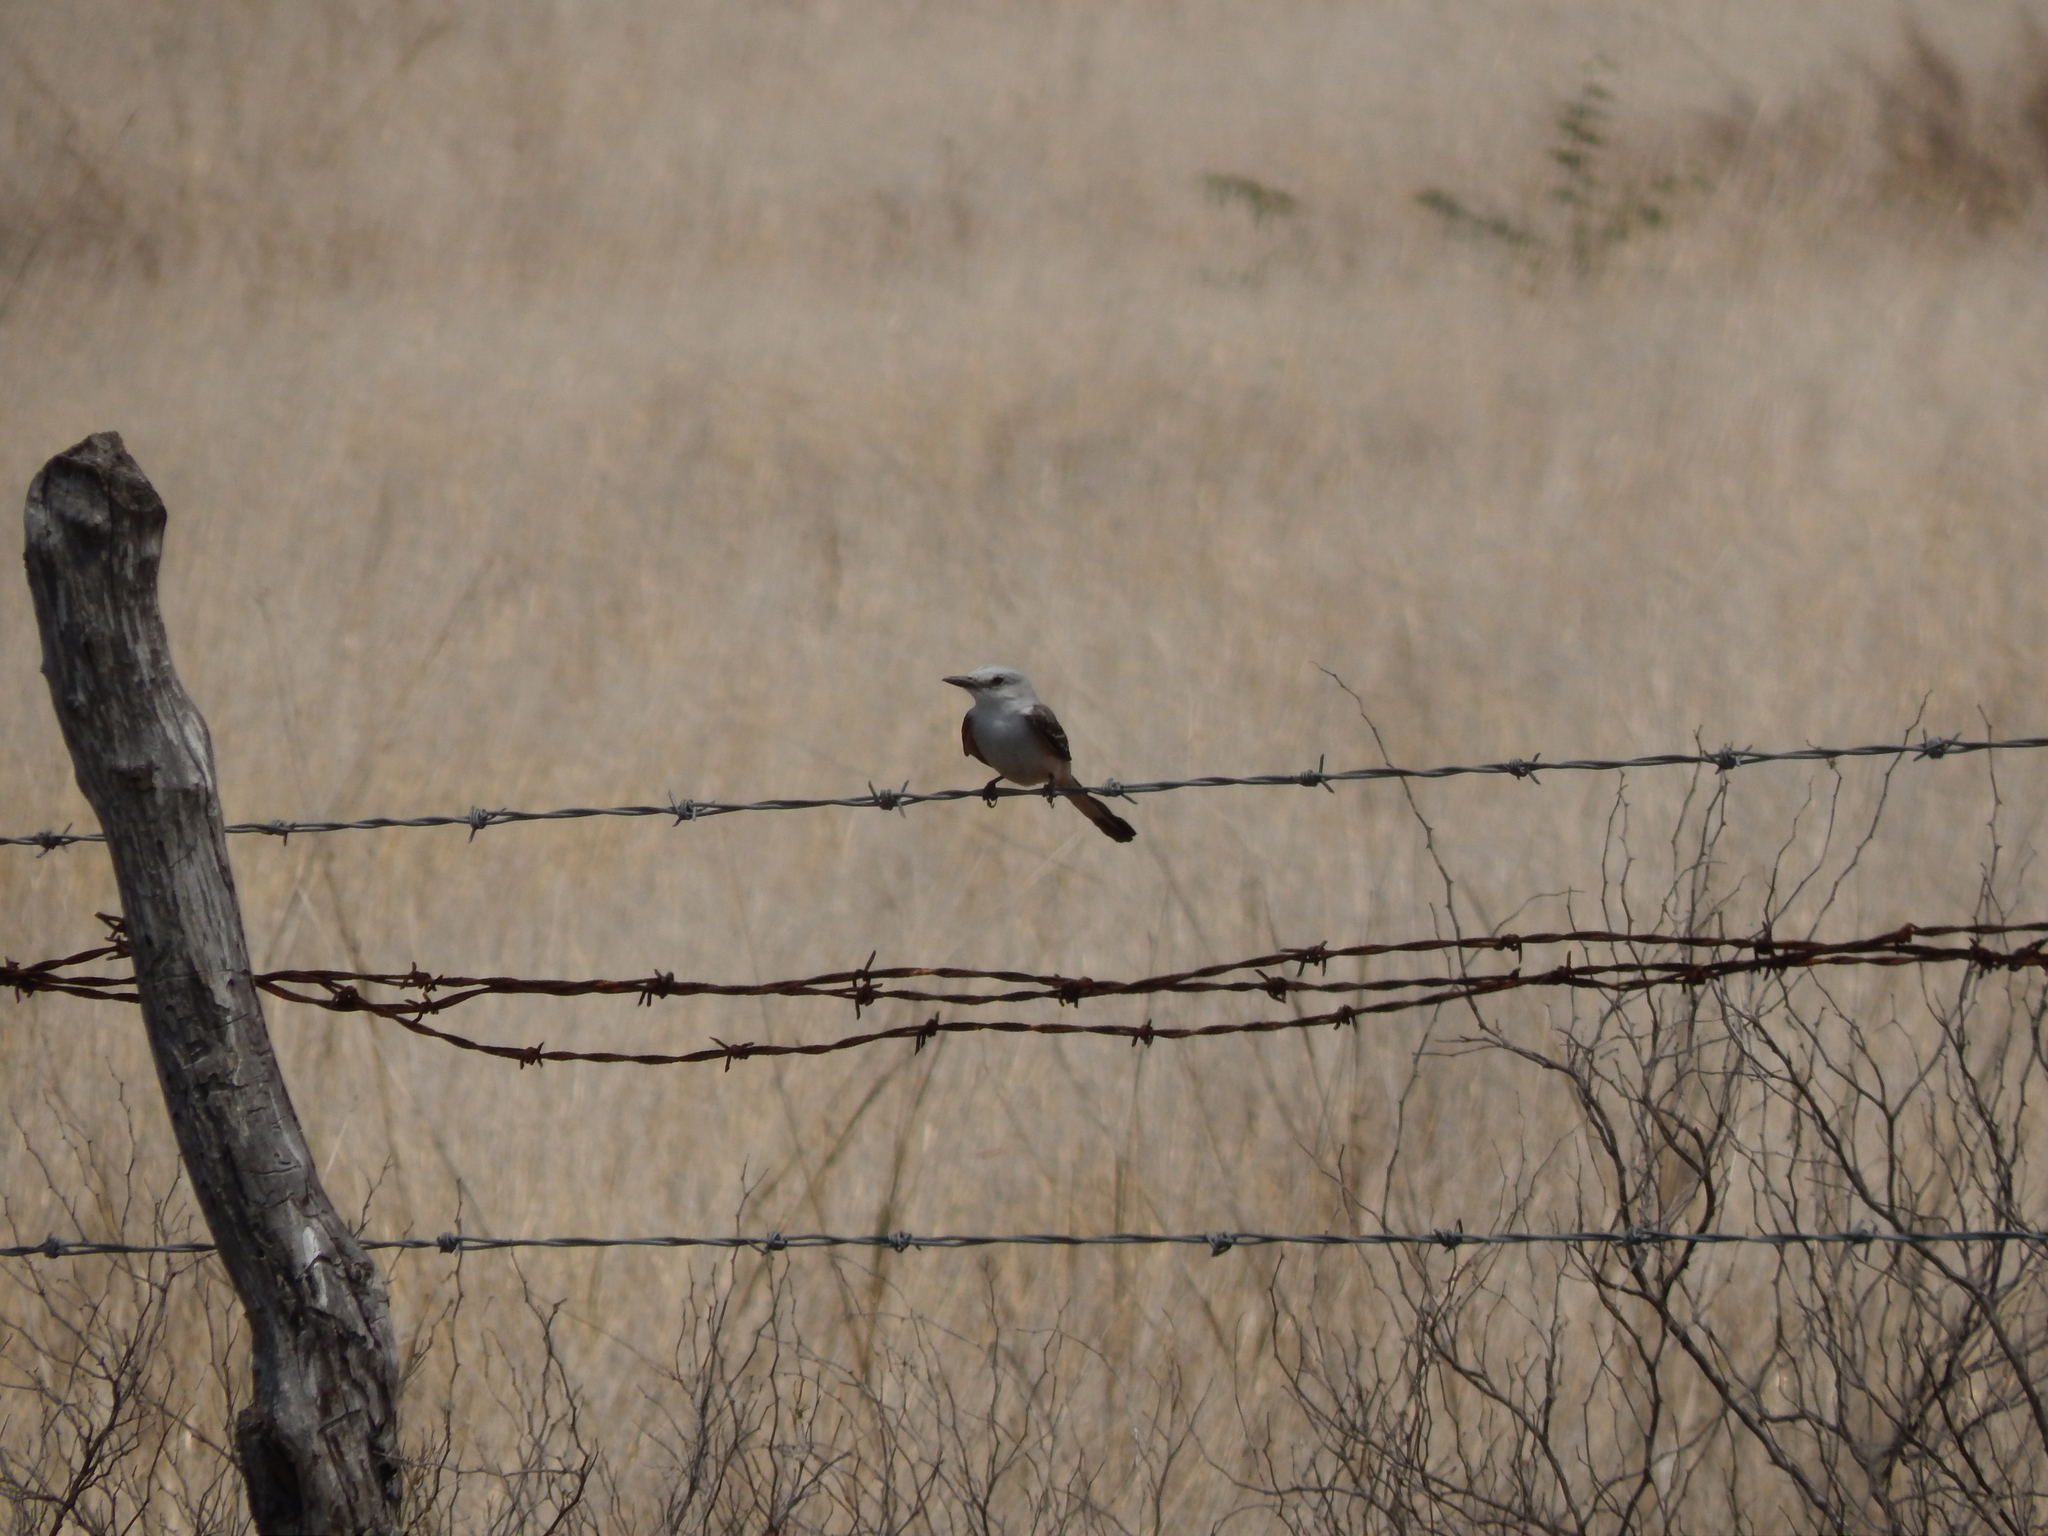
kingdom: Animalia
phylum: Chordata
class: Aves
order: Passeriformes
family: Tyrannidae
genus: Tyrannus
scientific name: Tyrannus forficatus
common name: Scissor-tailed flycatcher
